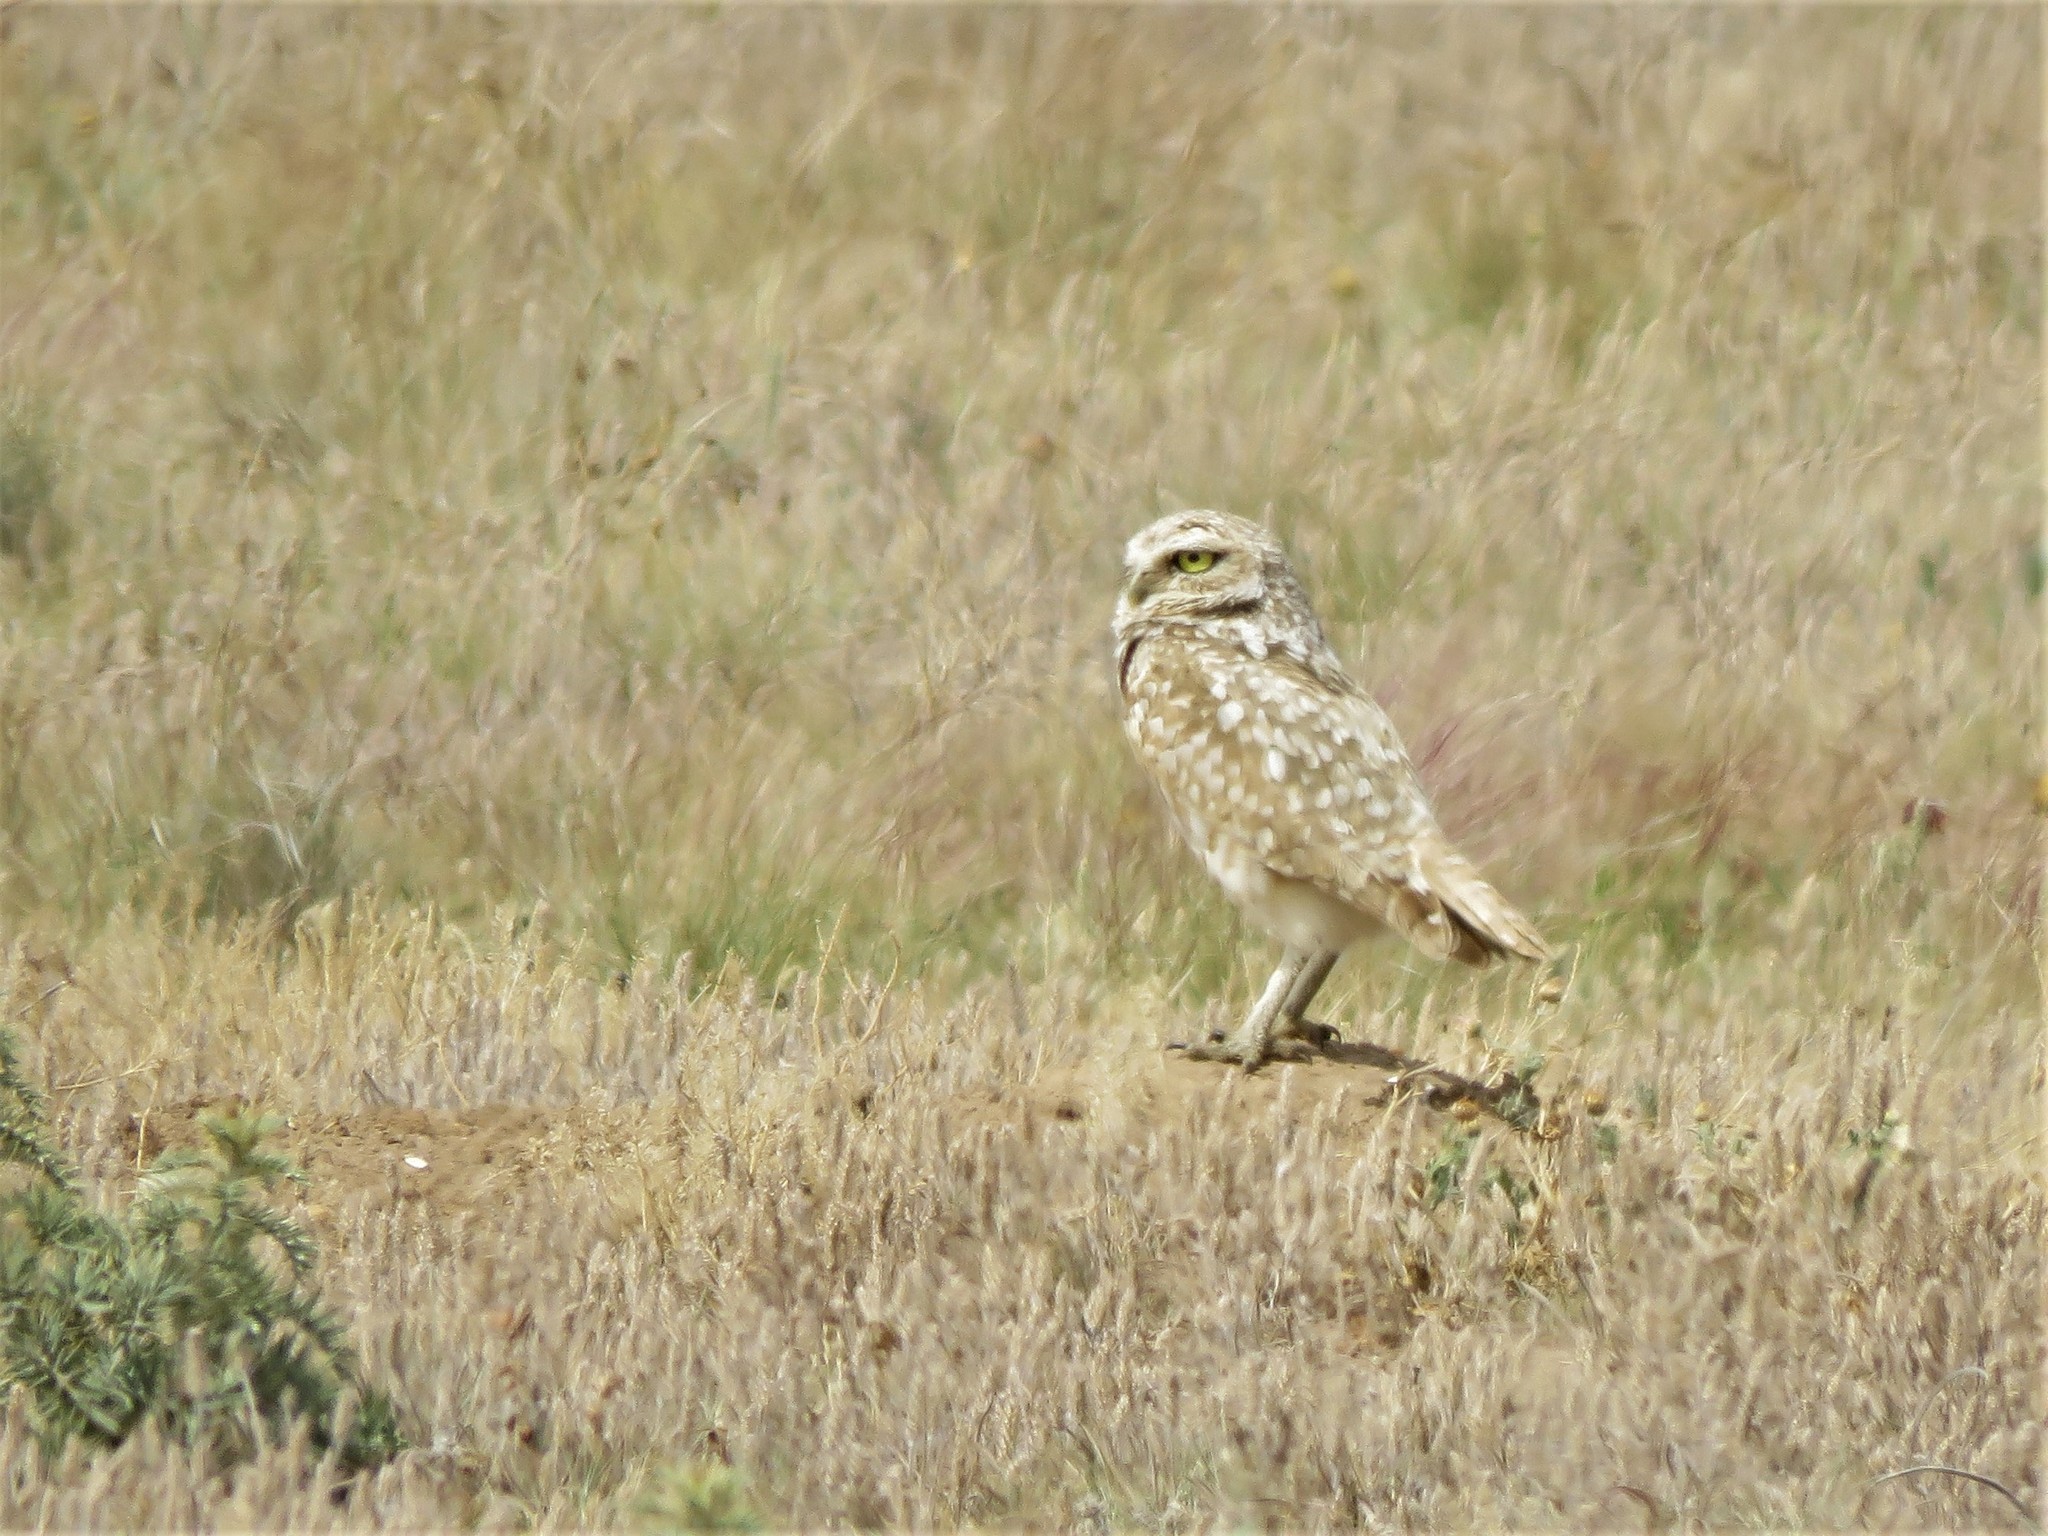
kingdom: Animalia
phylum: Chordata
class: Aves
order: Strigiformes
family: Strigidae
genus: Athene
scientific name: Athene cunicularia
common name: Burrowing owl
